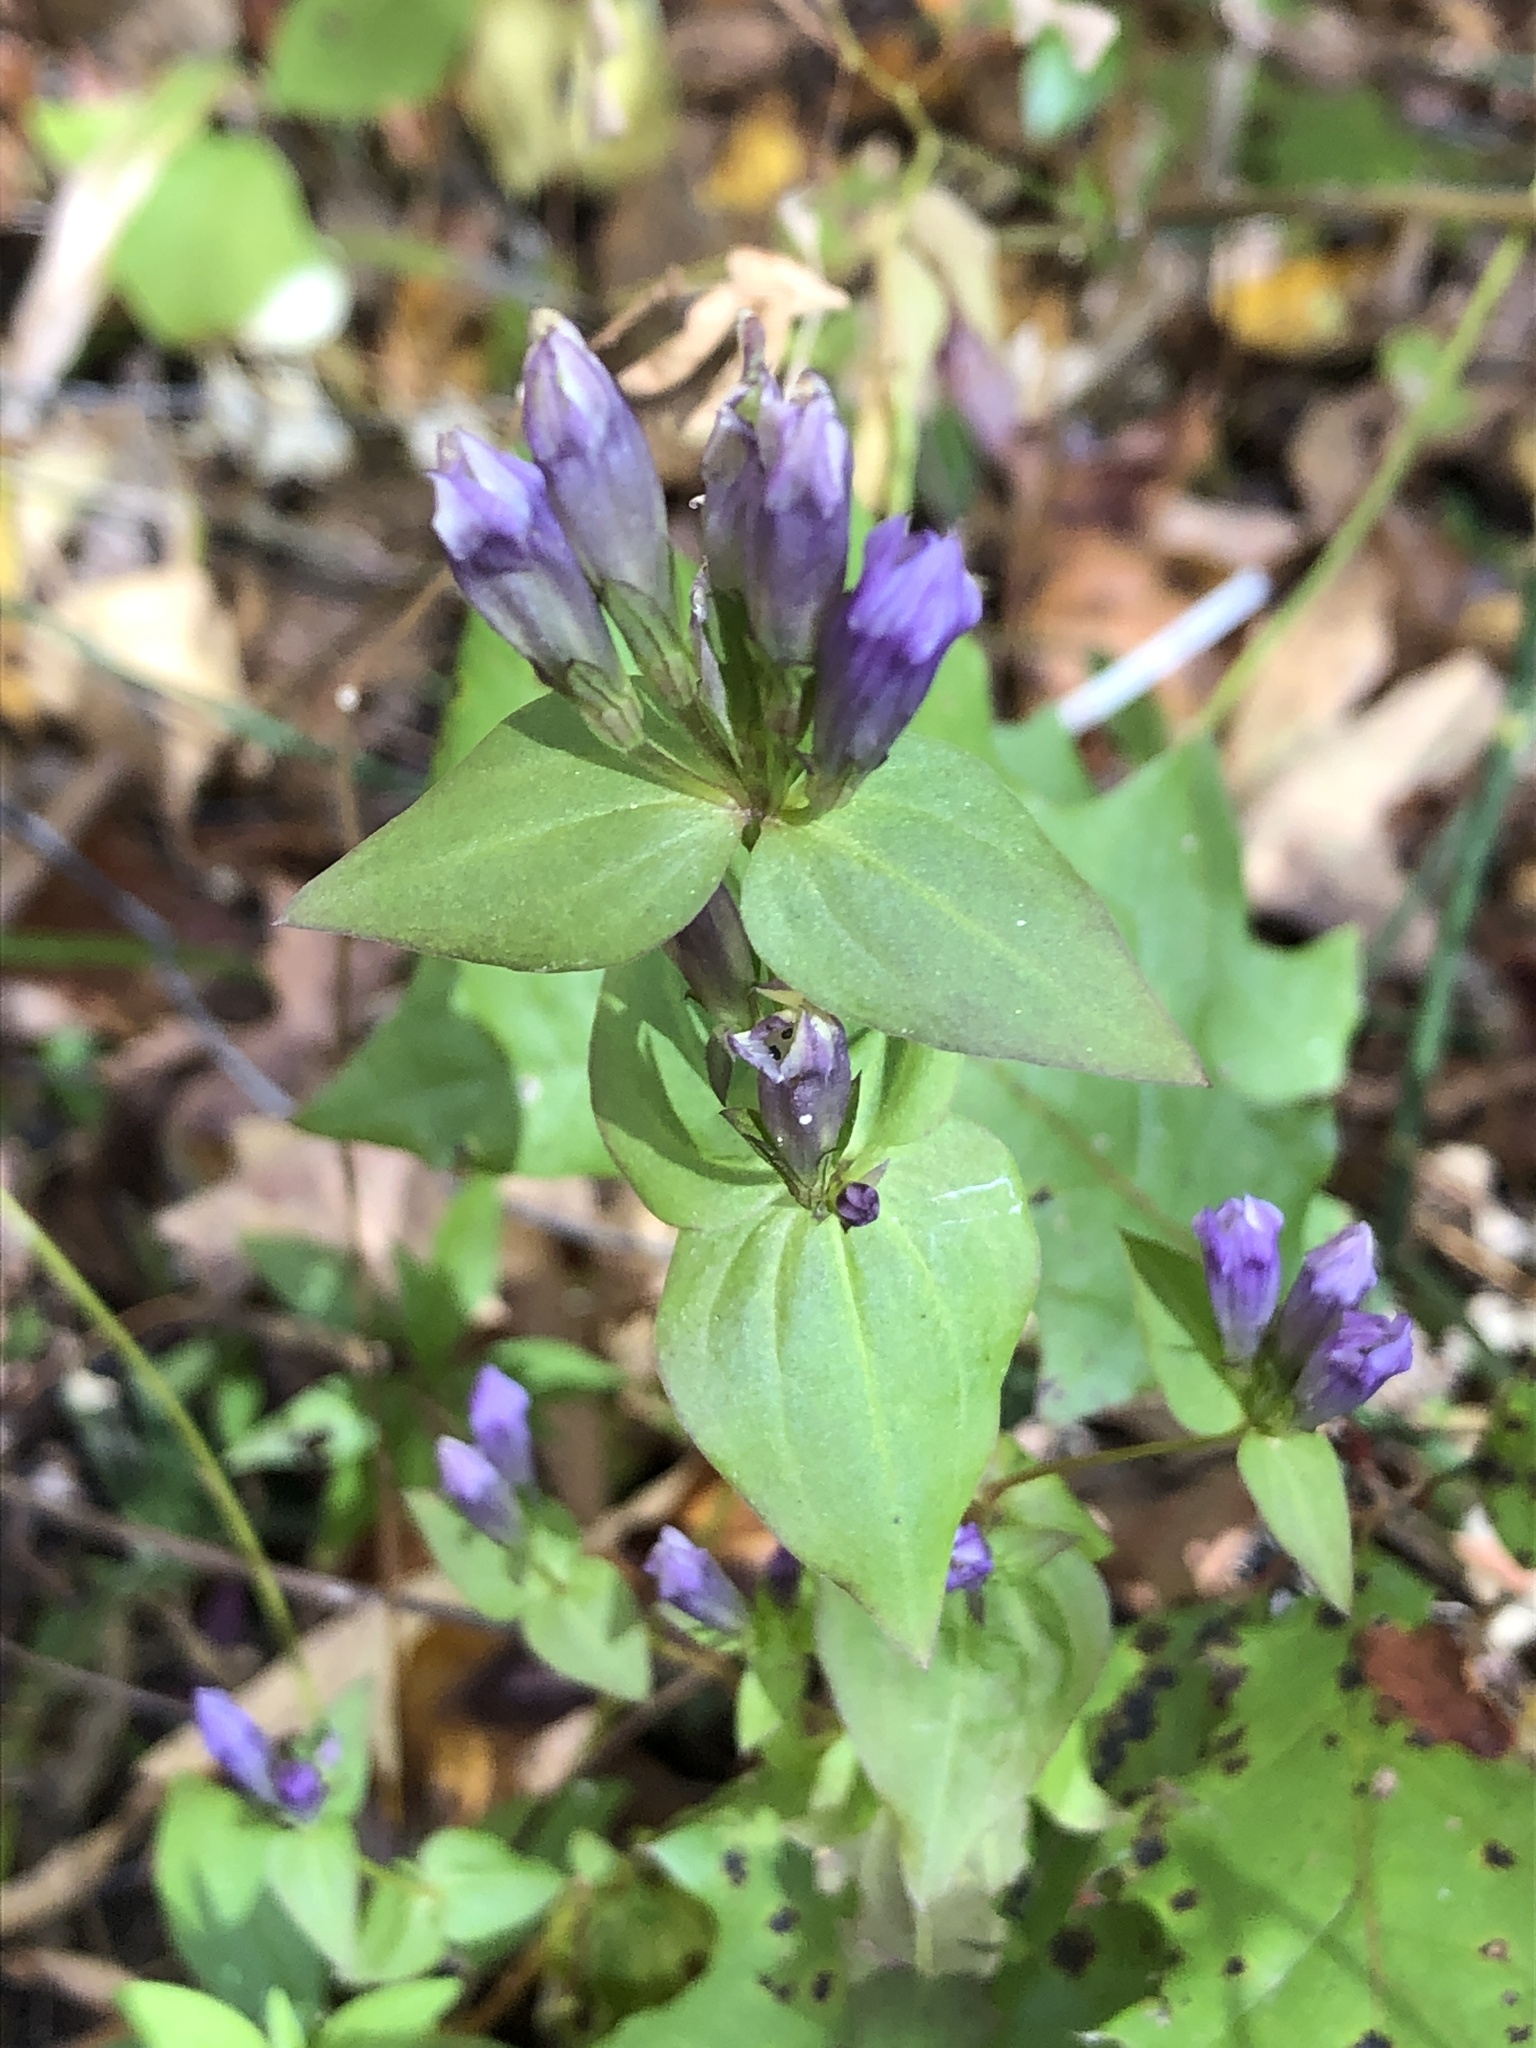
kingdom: Plantae
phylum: Tracheophyta
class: Magnoliopsida
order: Gentianales
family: Gentianaceae
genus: Gentianella
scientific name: Gentianella quinquefolia
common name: Agueweed
